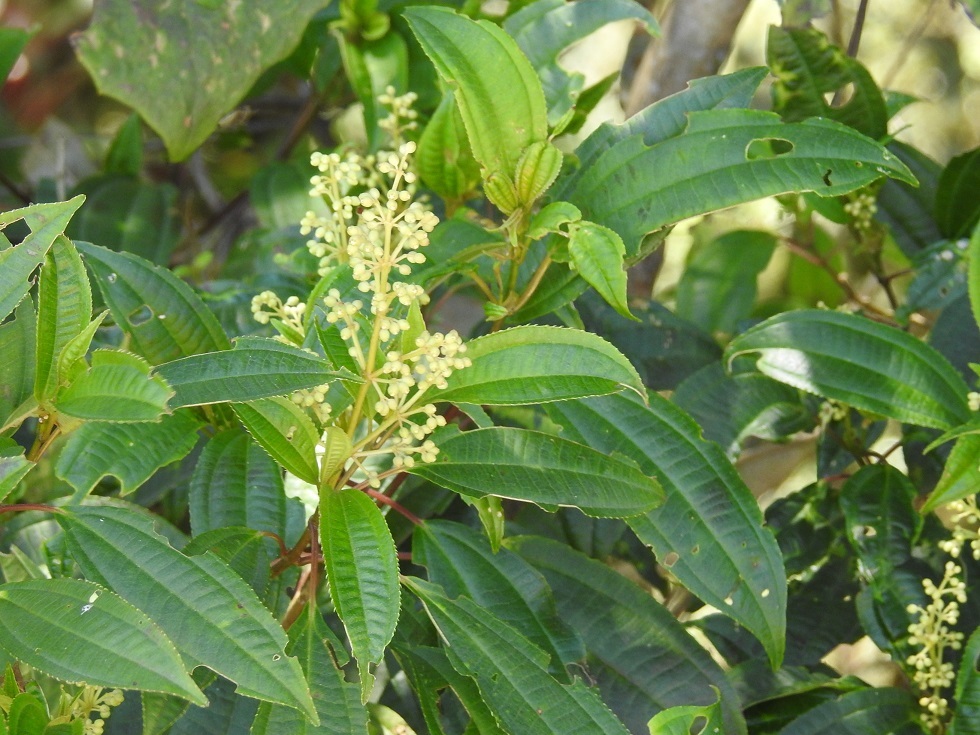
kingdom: Plantae
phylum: Tracheophyta
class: Magnoliopsida
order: Myrtales
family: Melastomataceae
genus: Miconia
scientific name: Miconia glaberrima
